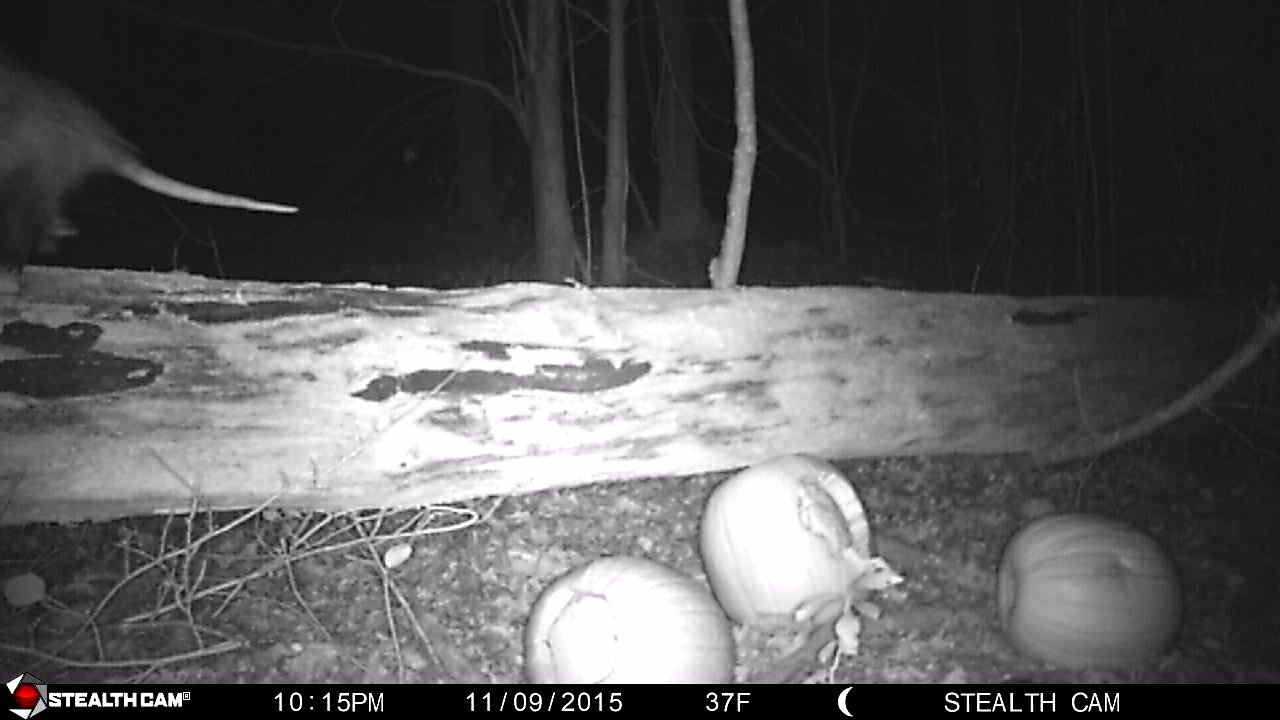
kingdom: Animalia
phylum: Chordata
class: Mammalia
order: Didelphimorphia
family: Didelphidae
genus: Didelphis
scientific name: Didelphis virginiana
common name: Virginia opossum
